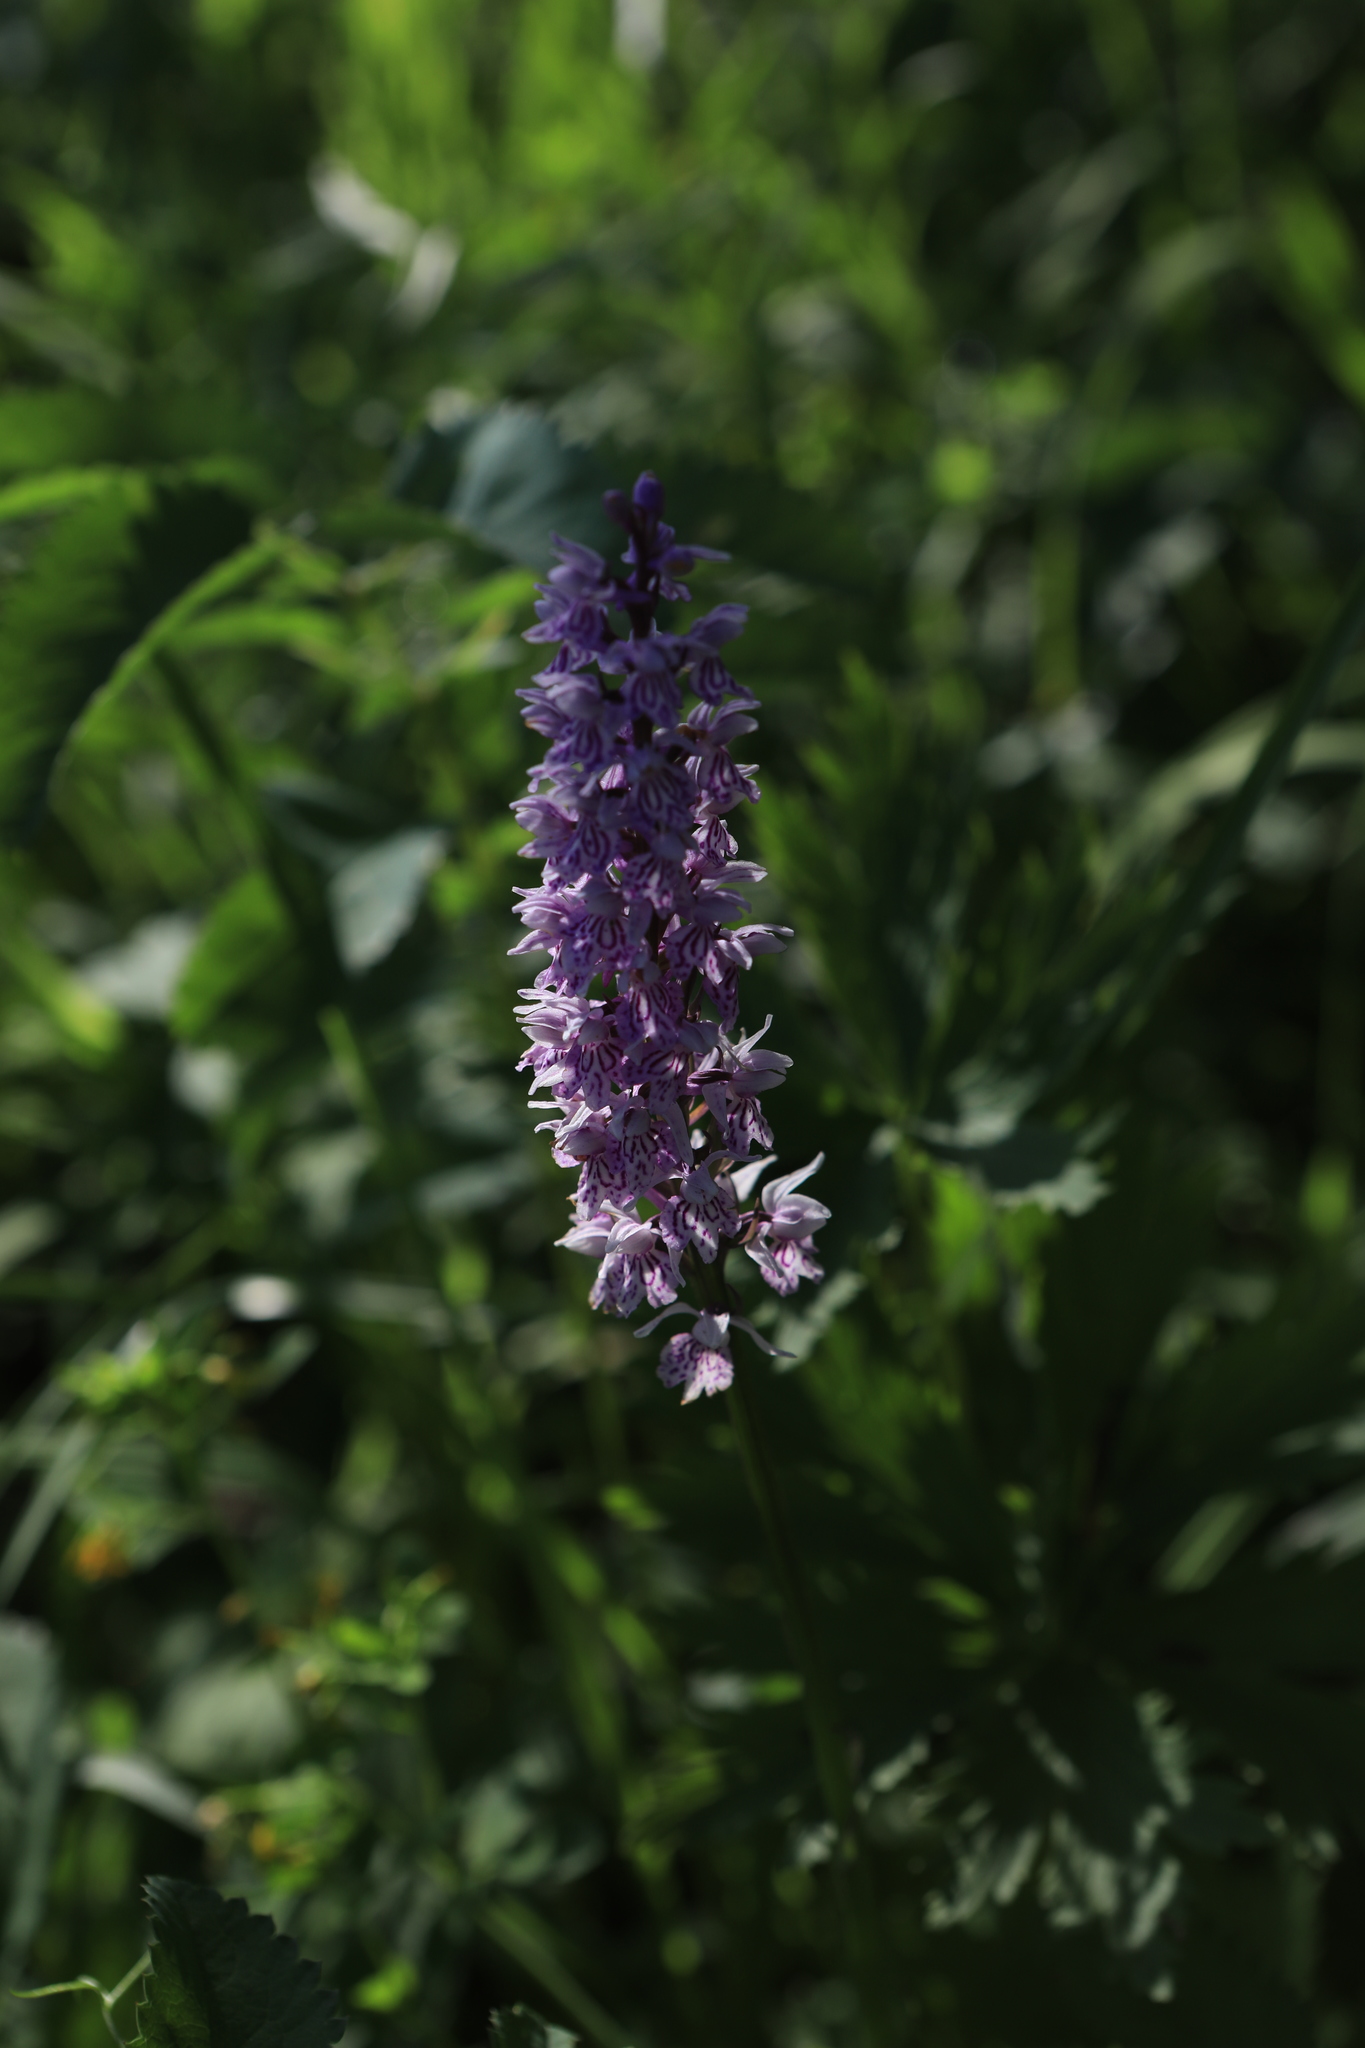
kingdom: Plantae
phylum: Tracheophyta
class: Liliopsida
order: Asparagales
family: Orchidaceae
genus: Dactylorhiza
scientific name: Dactylorhiza maculata
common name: Heath spotted-orchid
